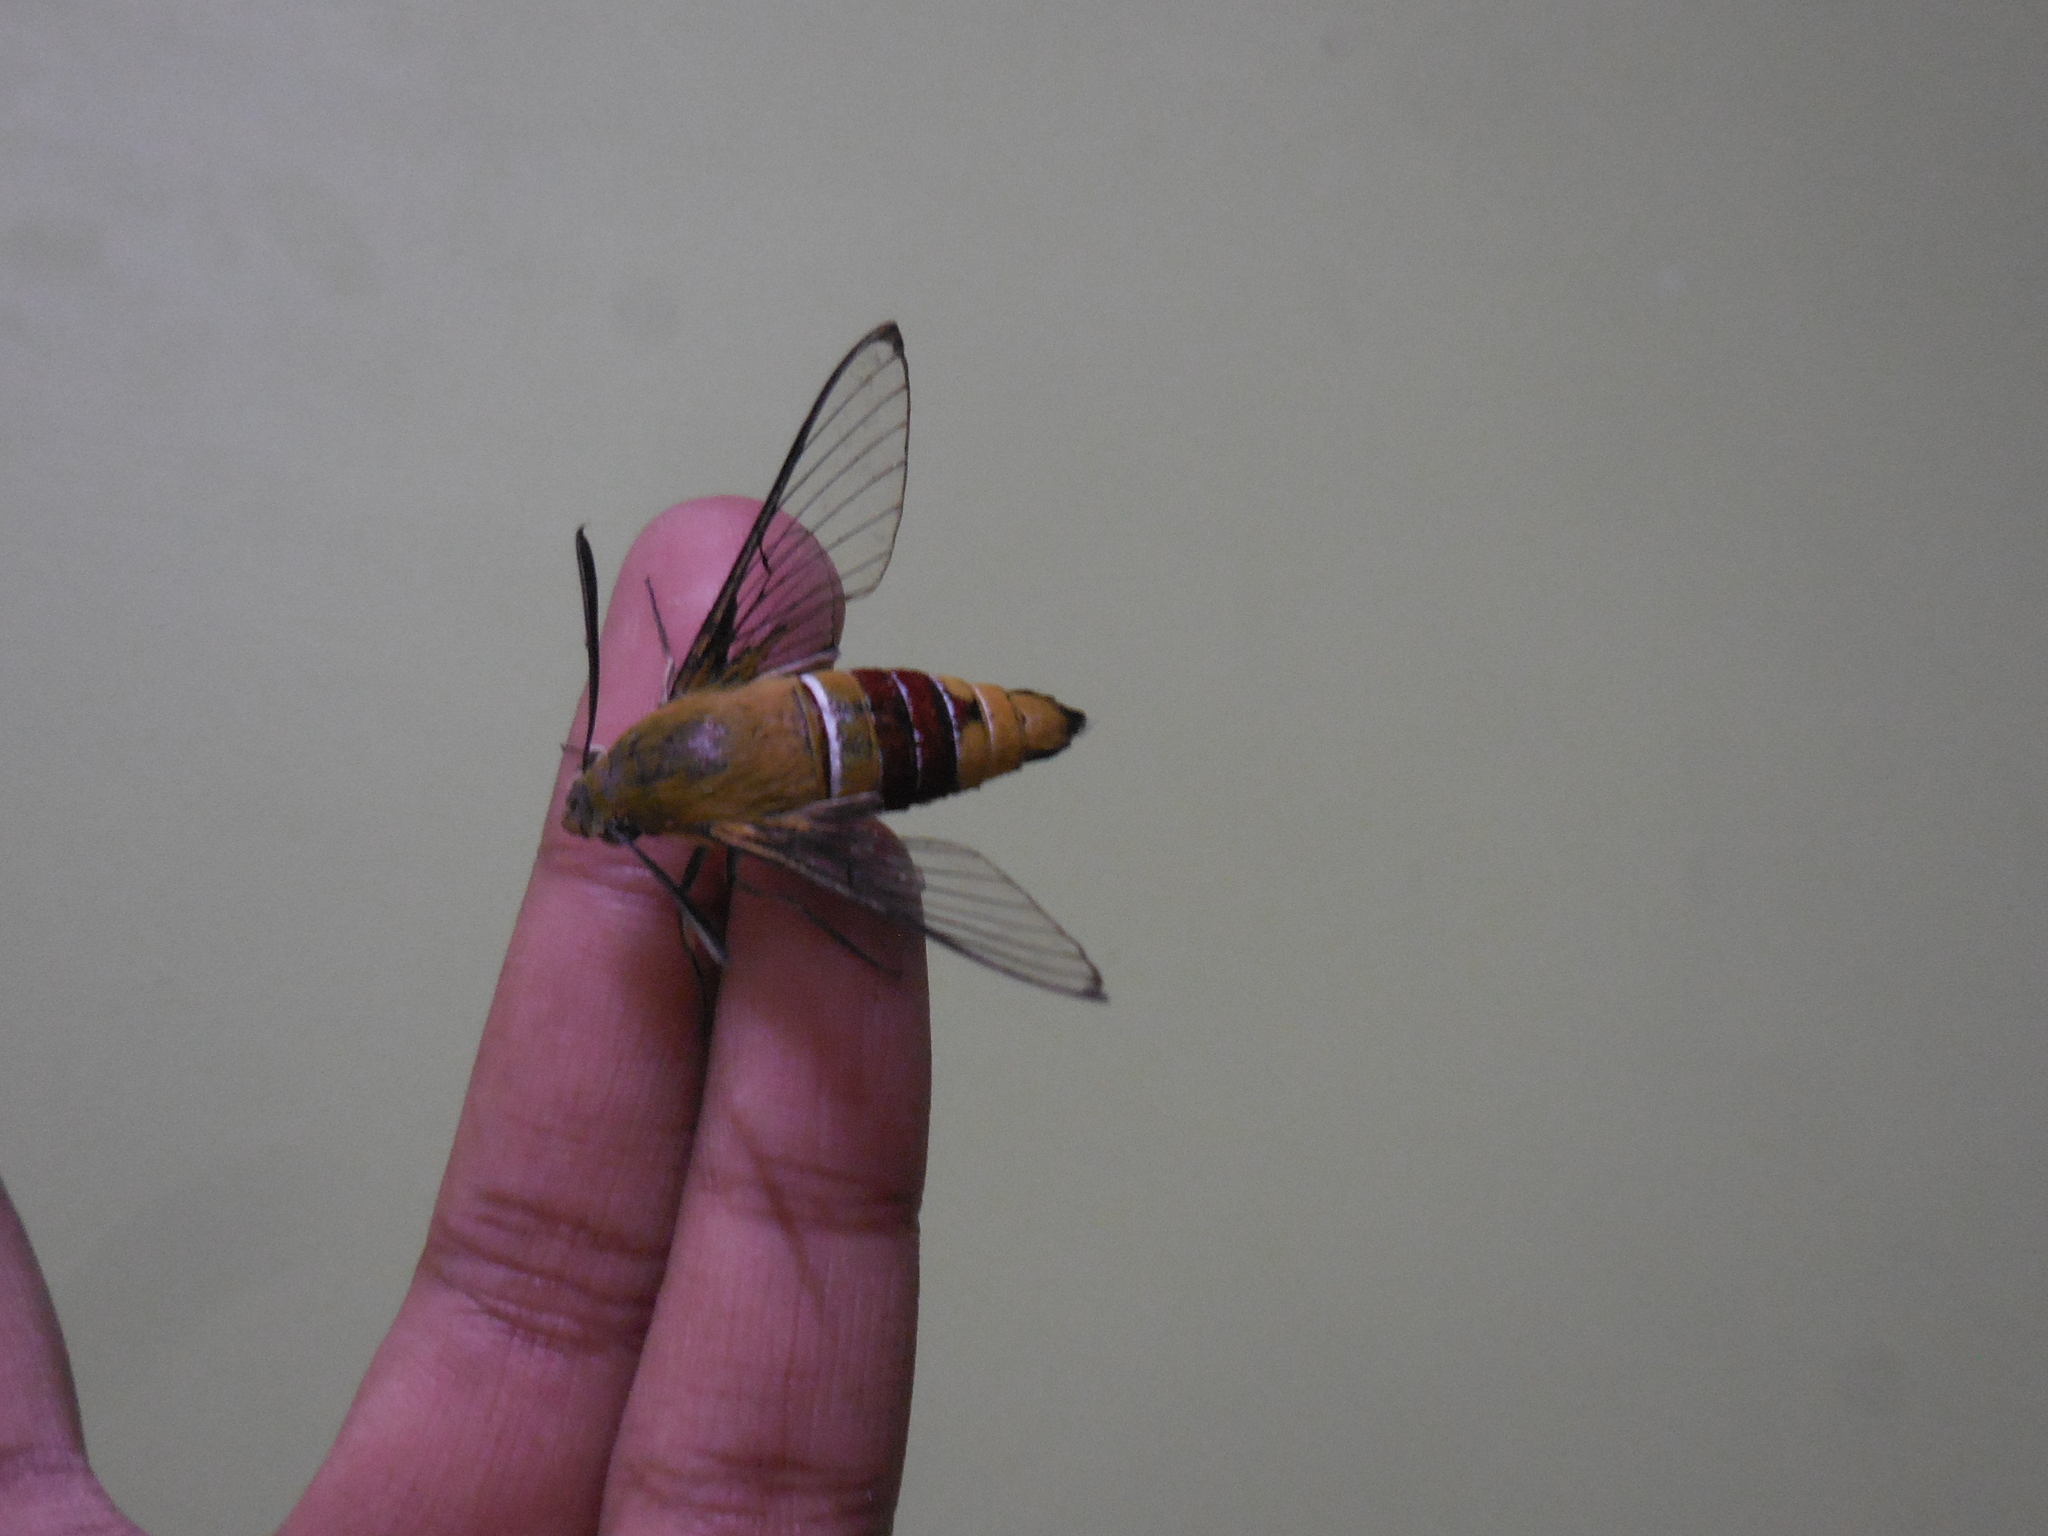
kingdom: Animalia
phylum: Arthropoda
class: Insecta
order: Lepidoptera
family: Sphingidae
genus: Cephonodes
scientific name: Cephonodes hylas
